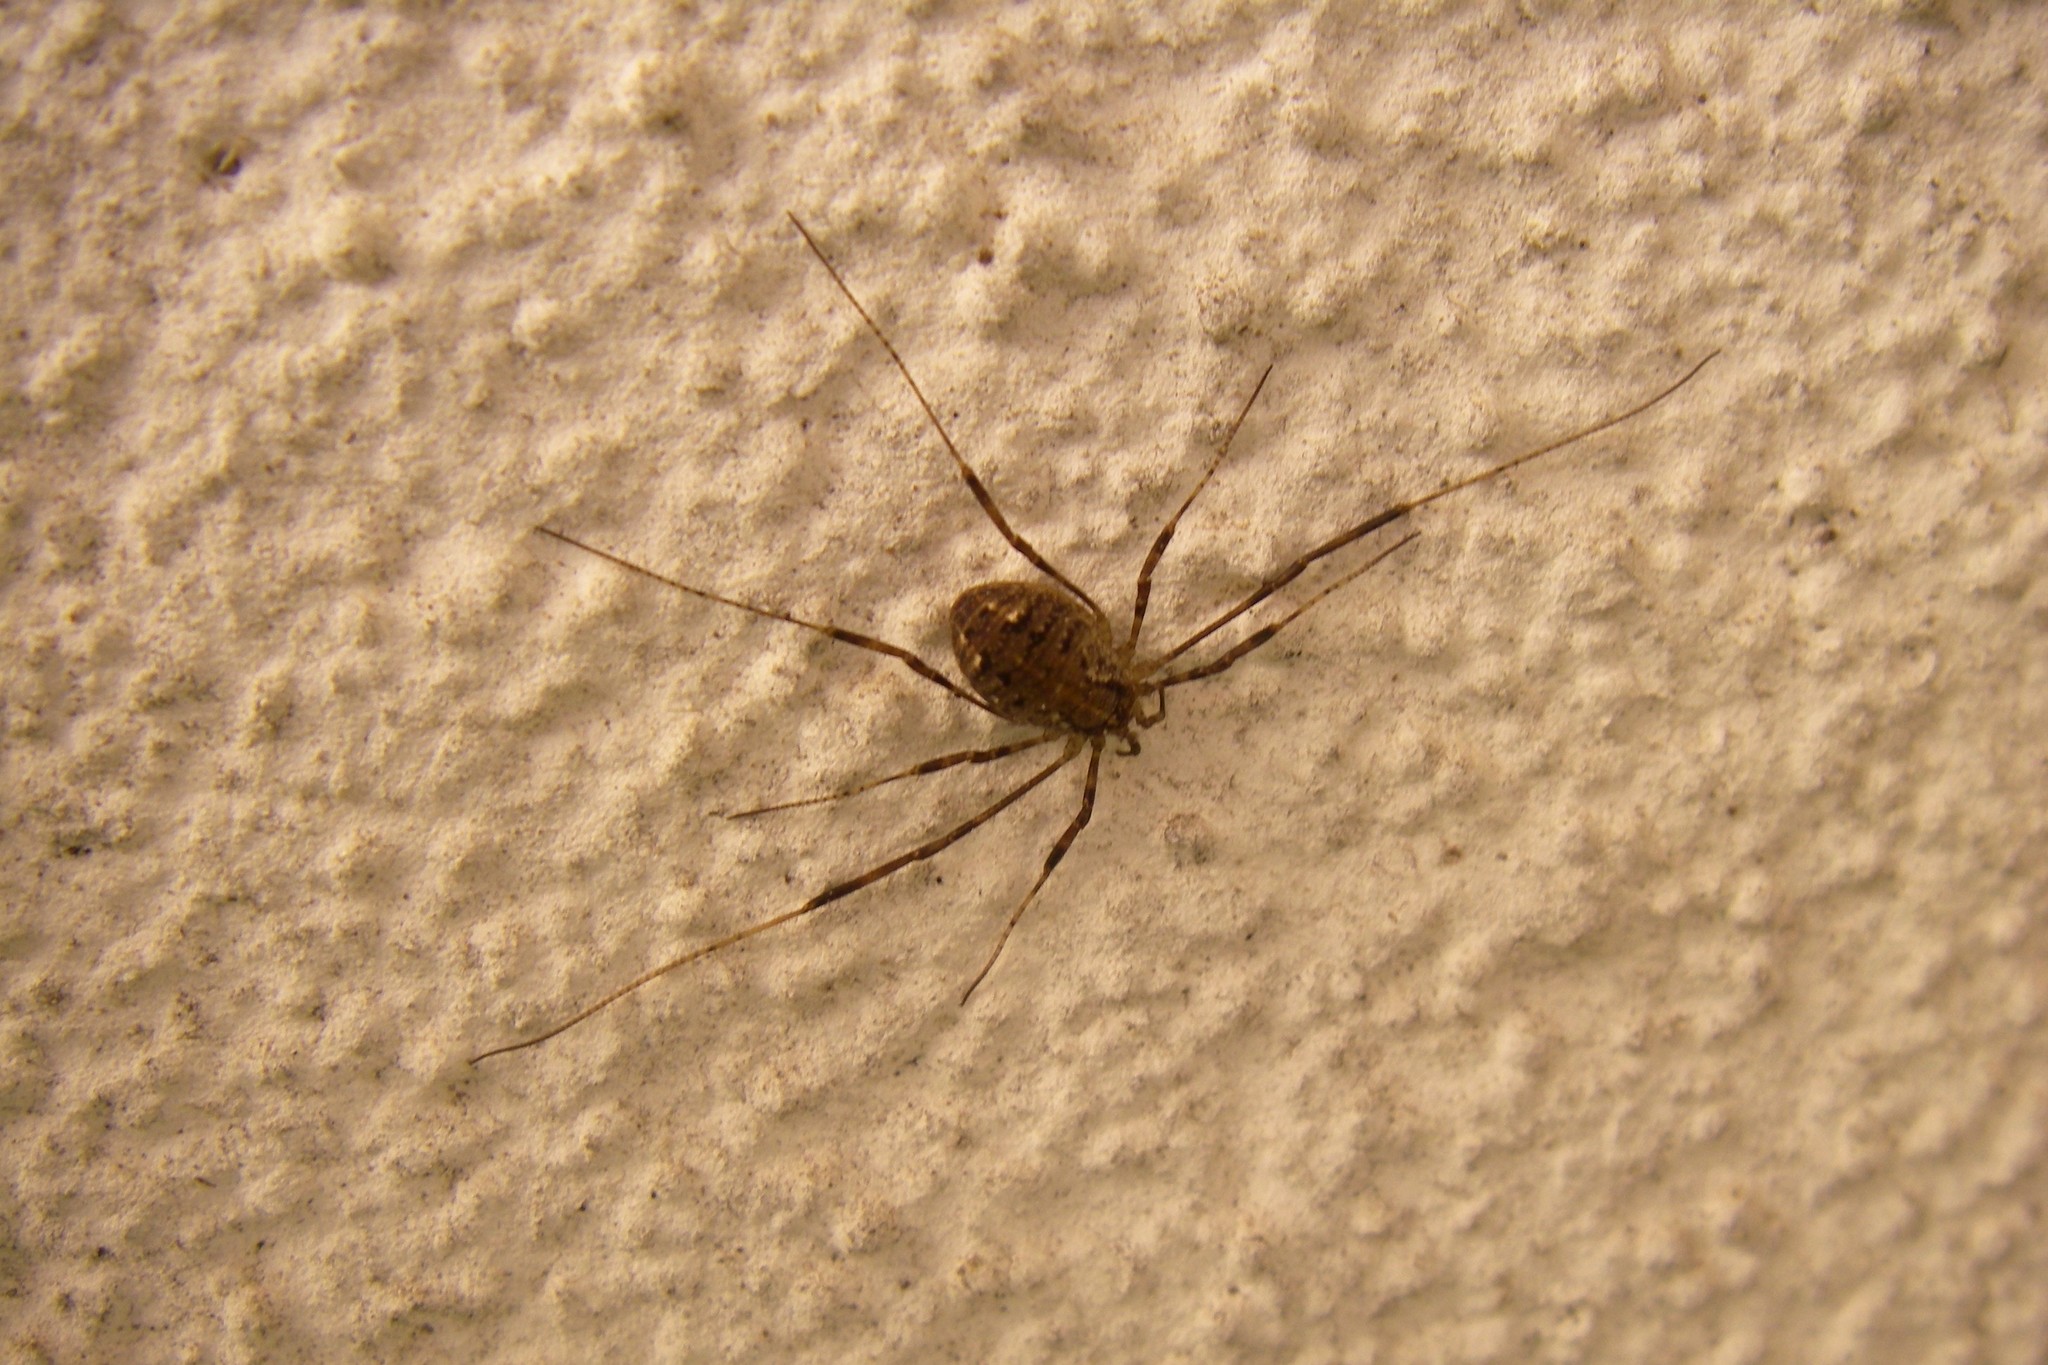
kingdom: Animalia
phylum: Arthropoda
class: Arachnida
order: Opiliones
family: Phalangiidae
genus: Paroligolophus
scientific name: Paroligolophus agrestis
